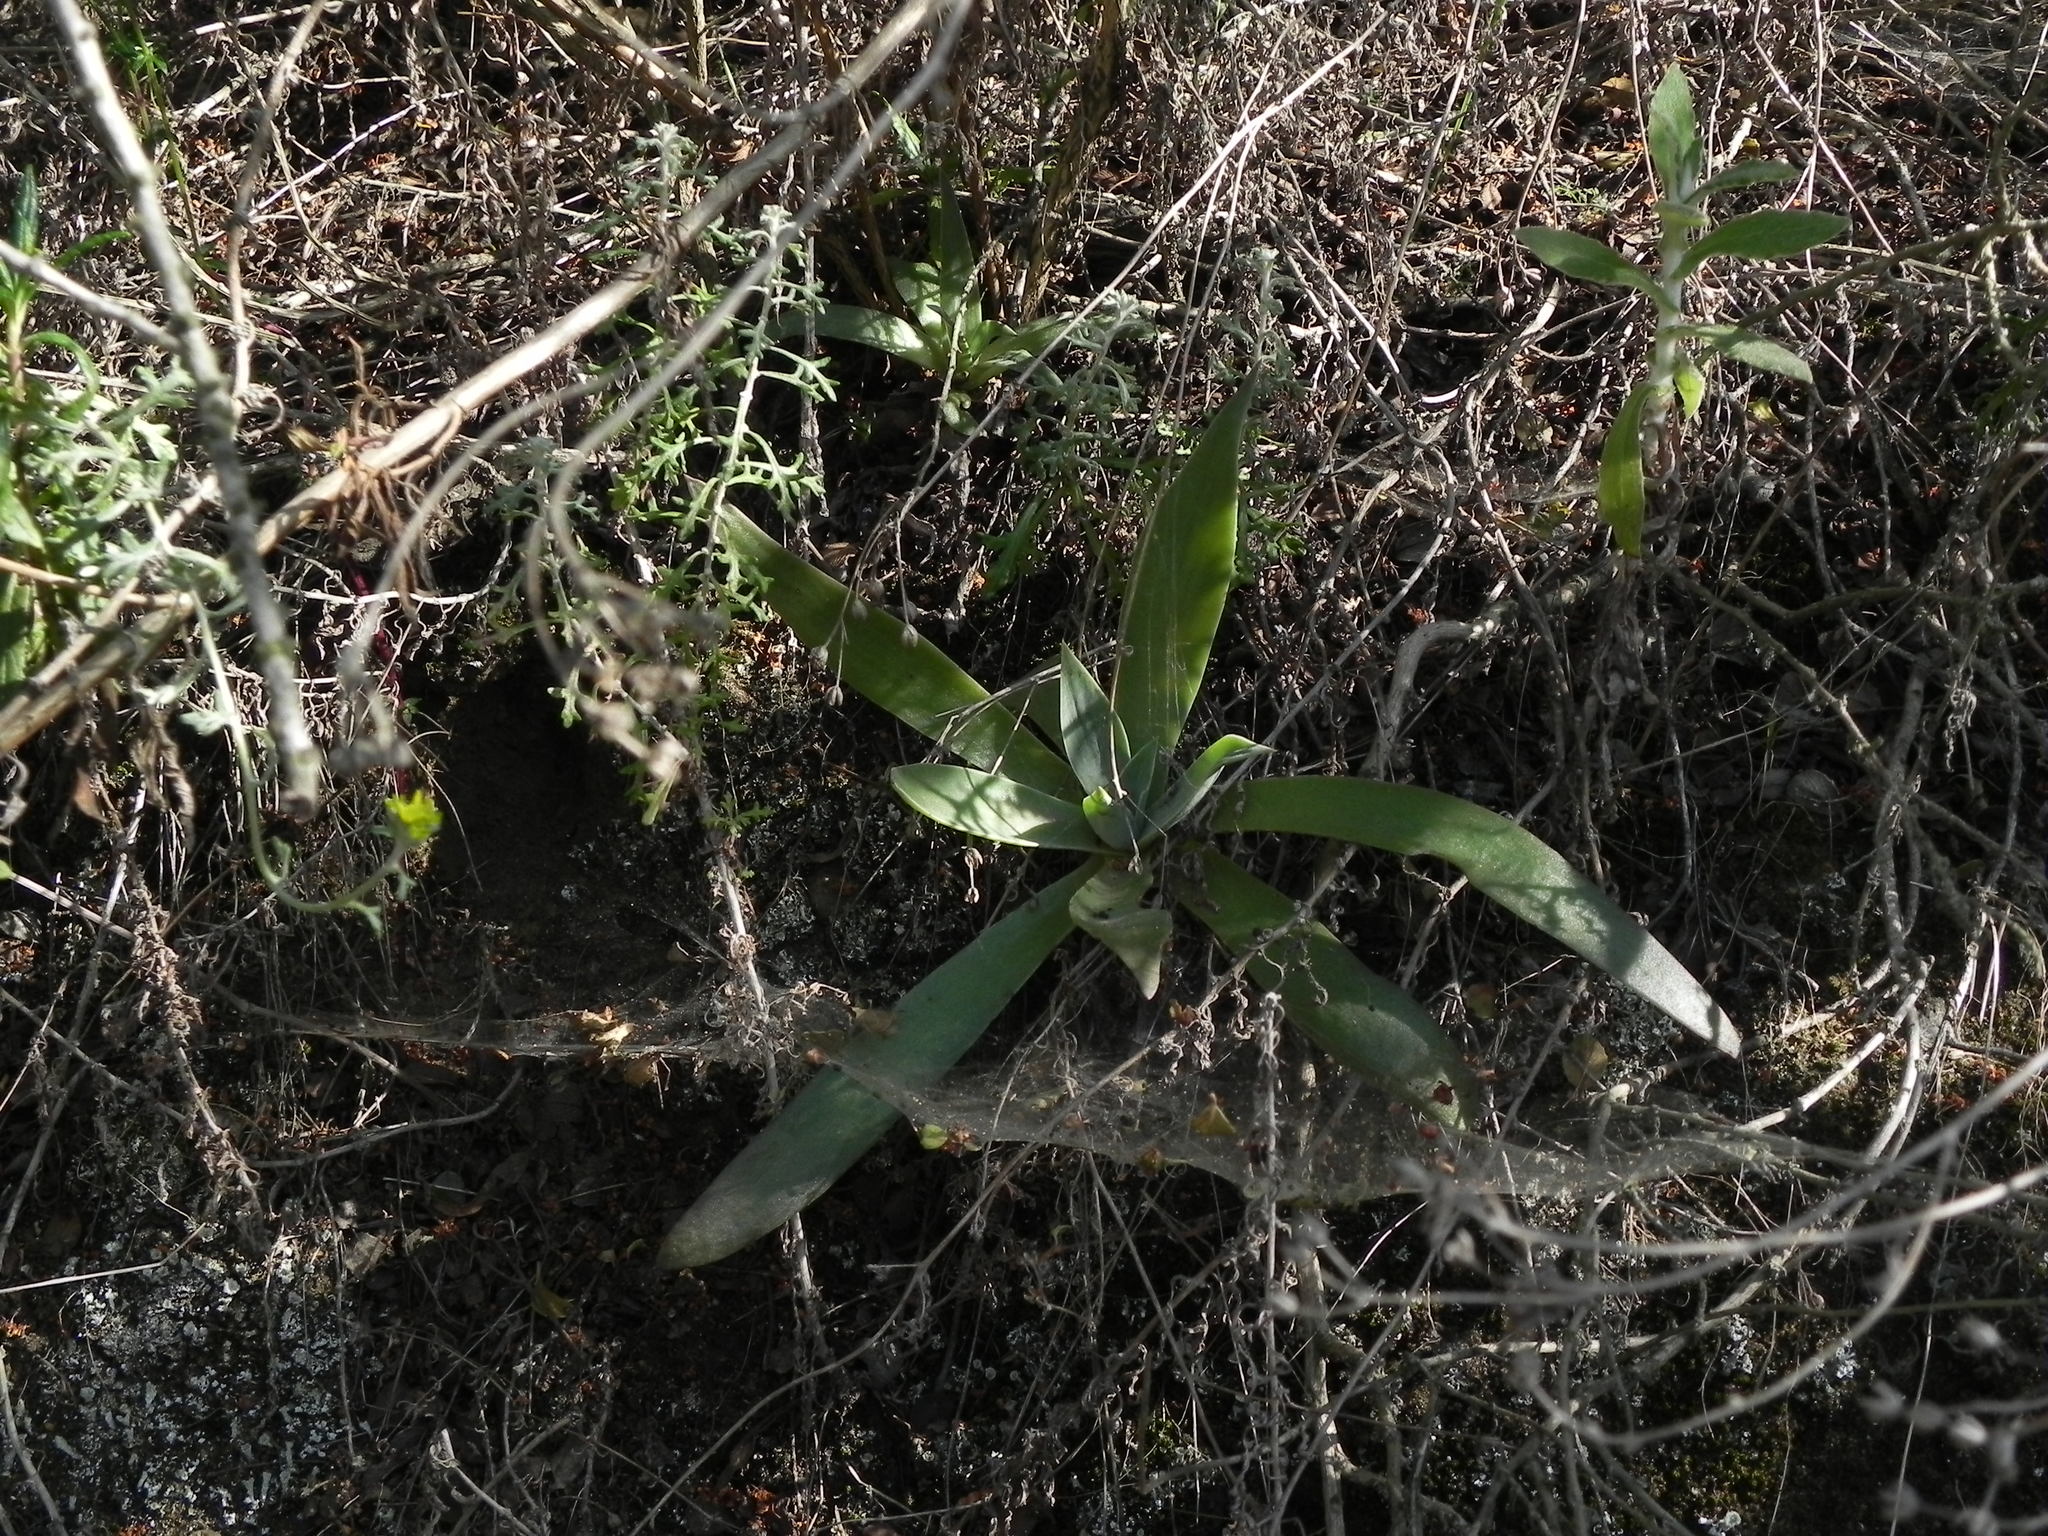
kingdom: Plantae
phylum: Tracheophyta
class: Magnoliopsida
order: Saxifragales
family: Crassulaceae
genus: Dudleya
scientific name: Dudleya lanceolata
